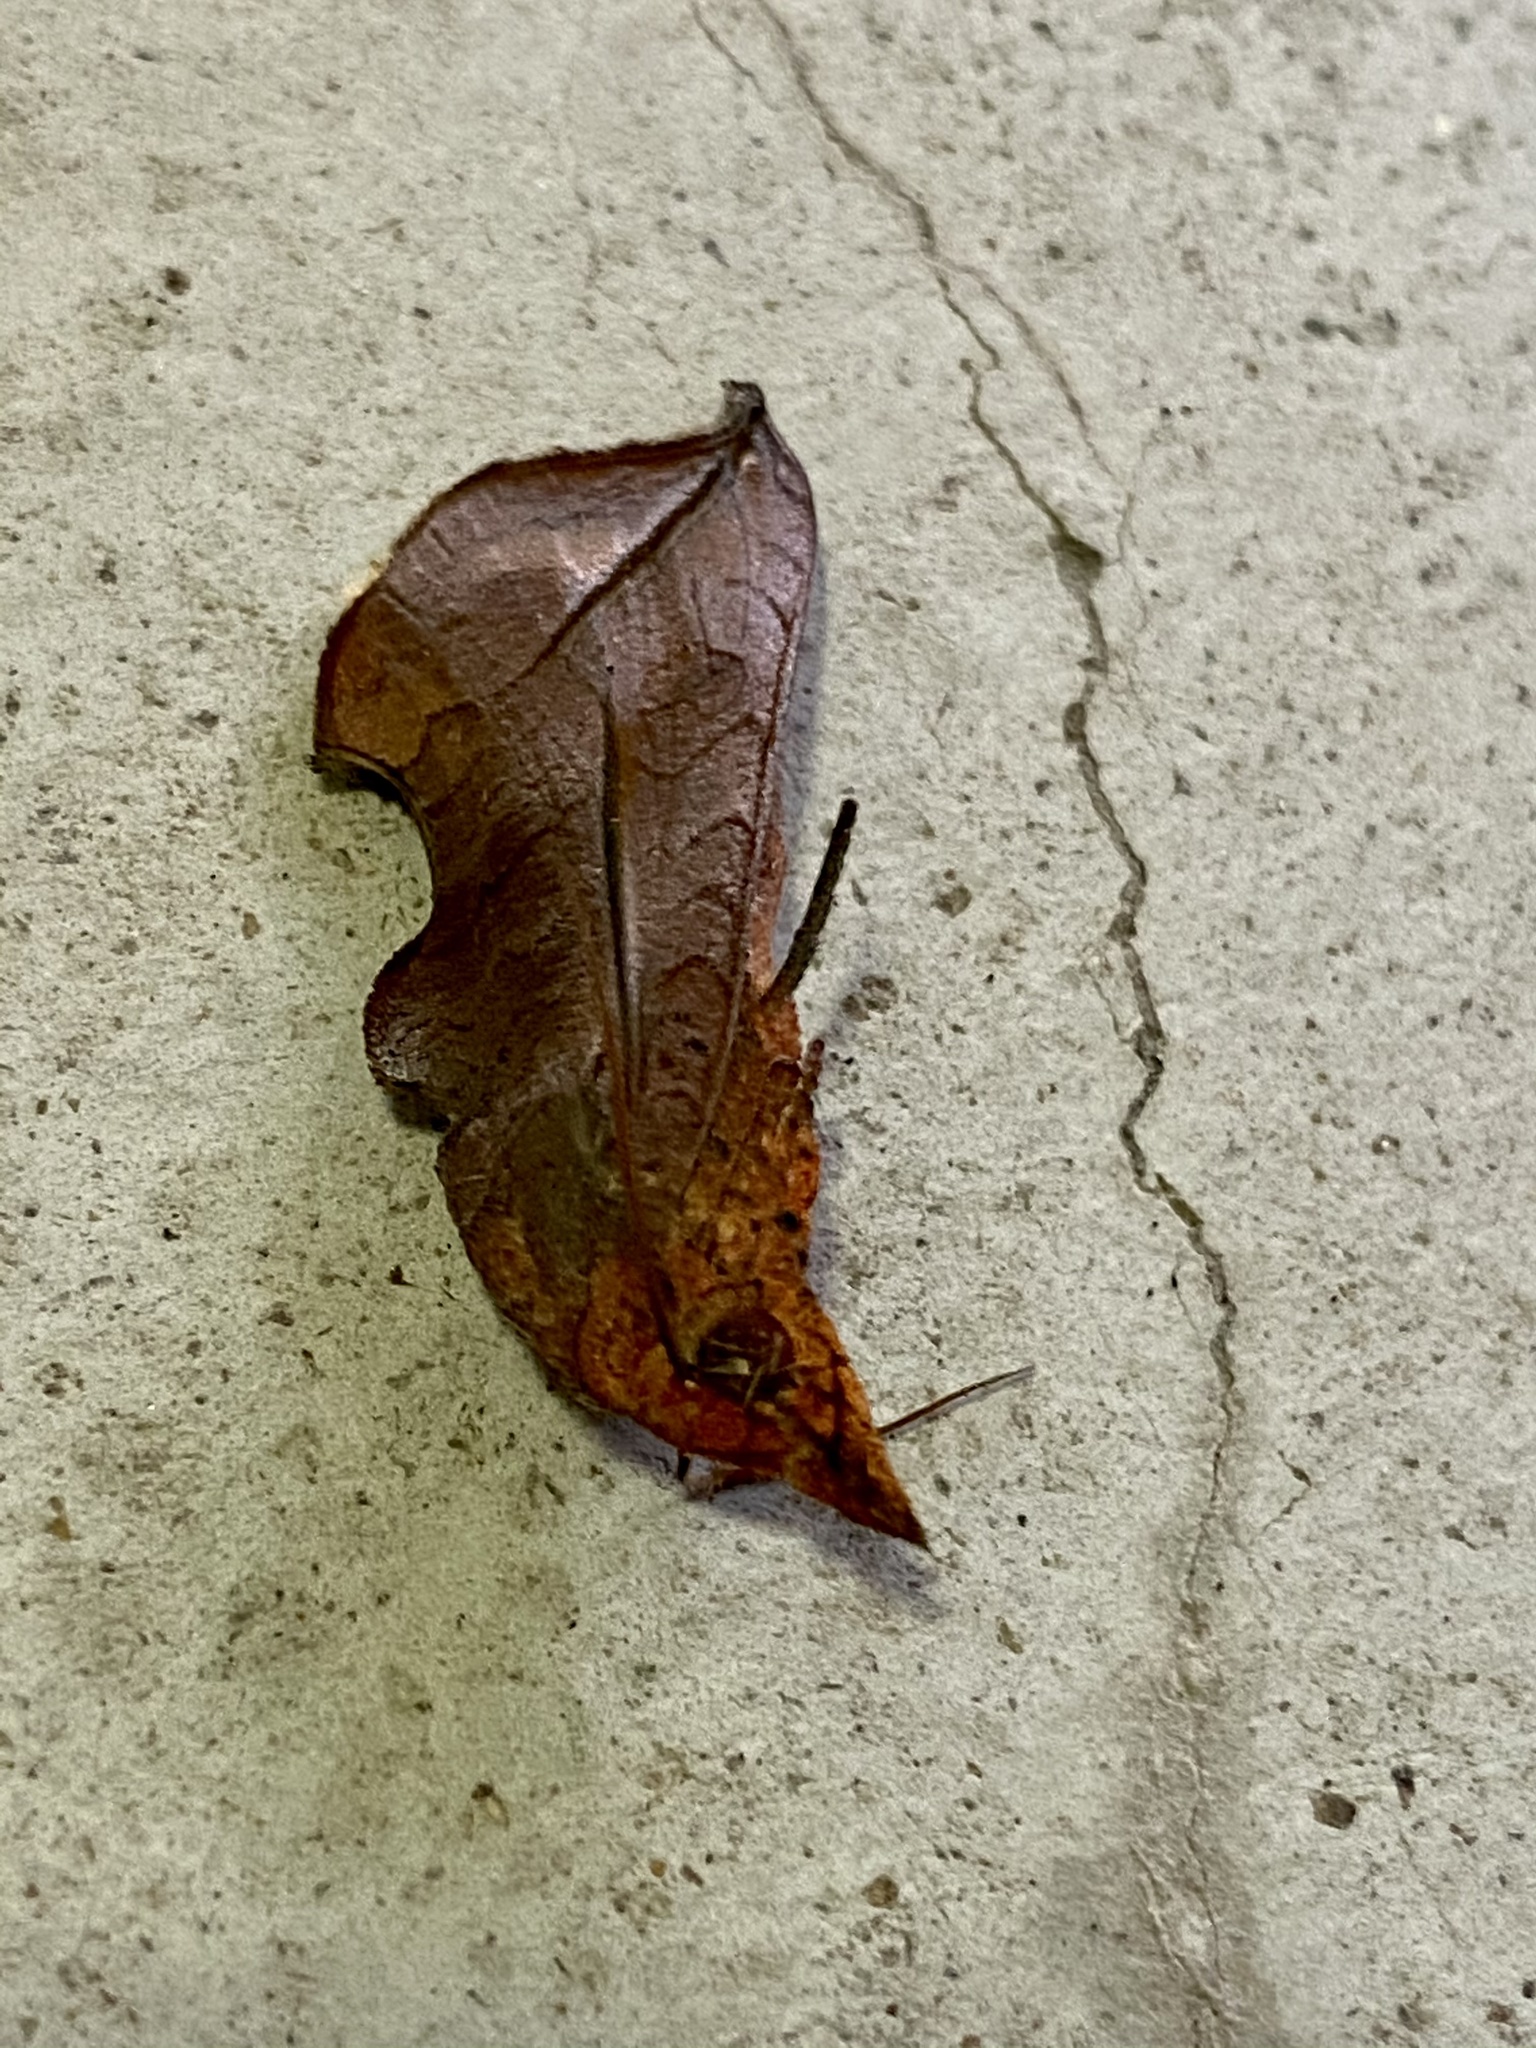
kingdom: Animalia
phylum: Arthropoda
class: Insecta
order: Lepidoptera
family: Erebidae
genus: Oraesia
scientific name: Oraesia excavata
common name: Moth
